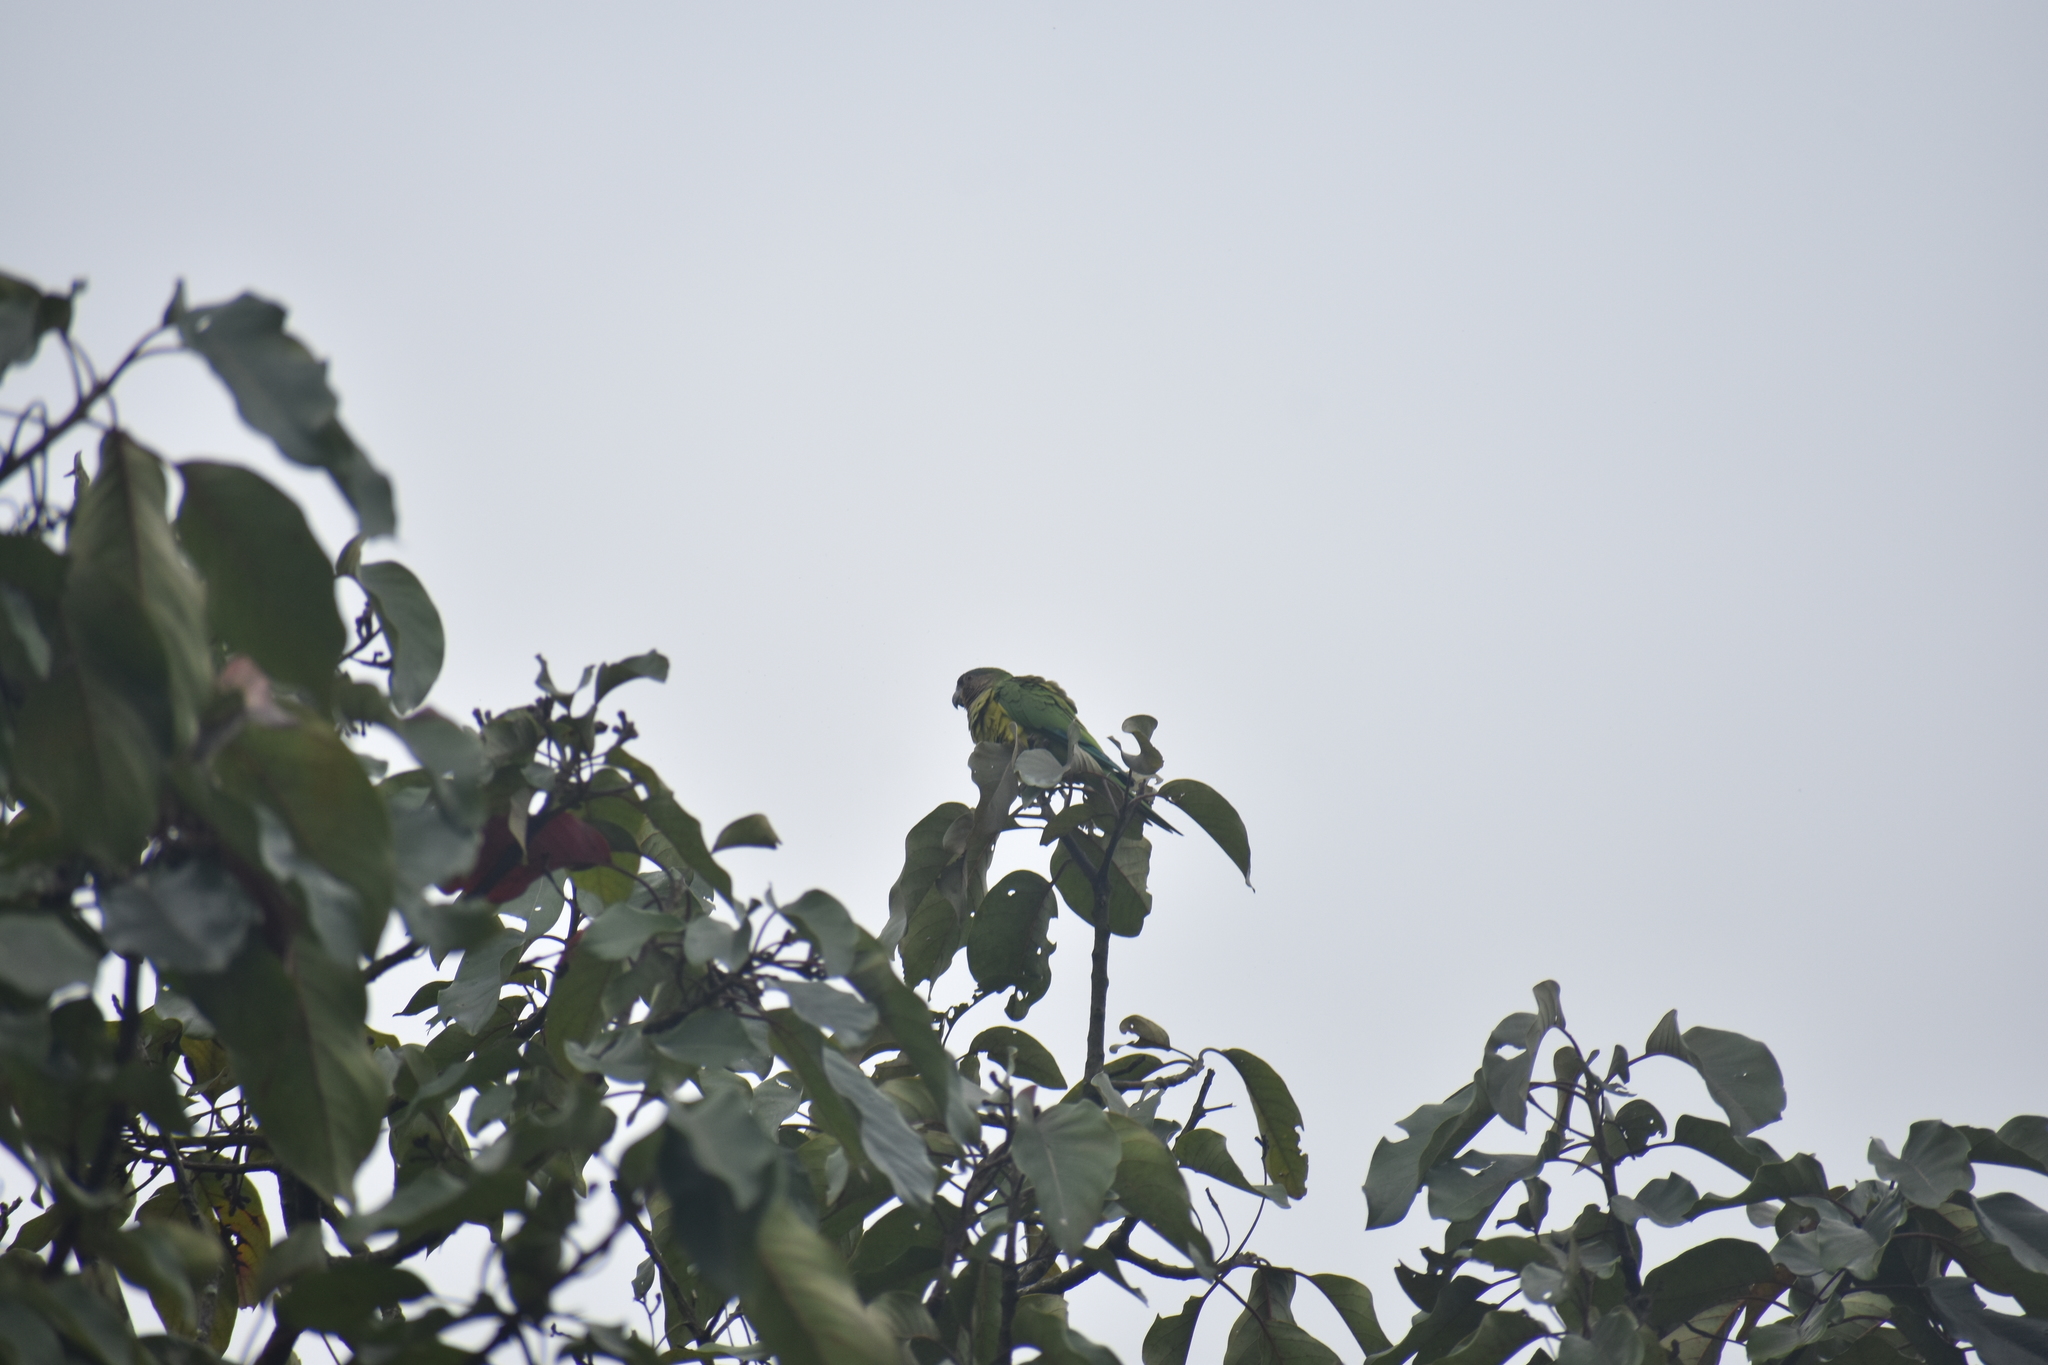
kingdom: Animalia
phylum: Chordata
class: Aves
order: Psittaciformes
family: Psittacidae
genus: Aratinga
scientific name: Aratinga pertinax
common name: Brown-throated parakeet
